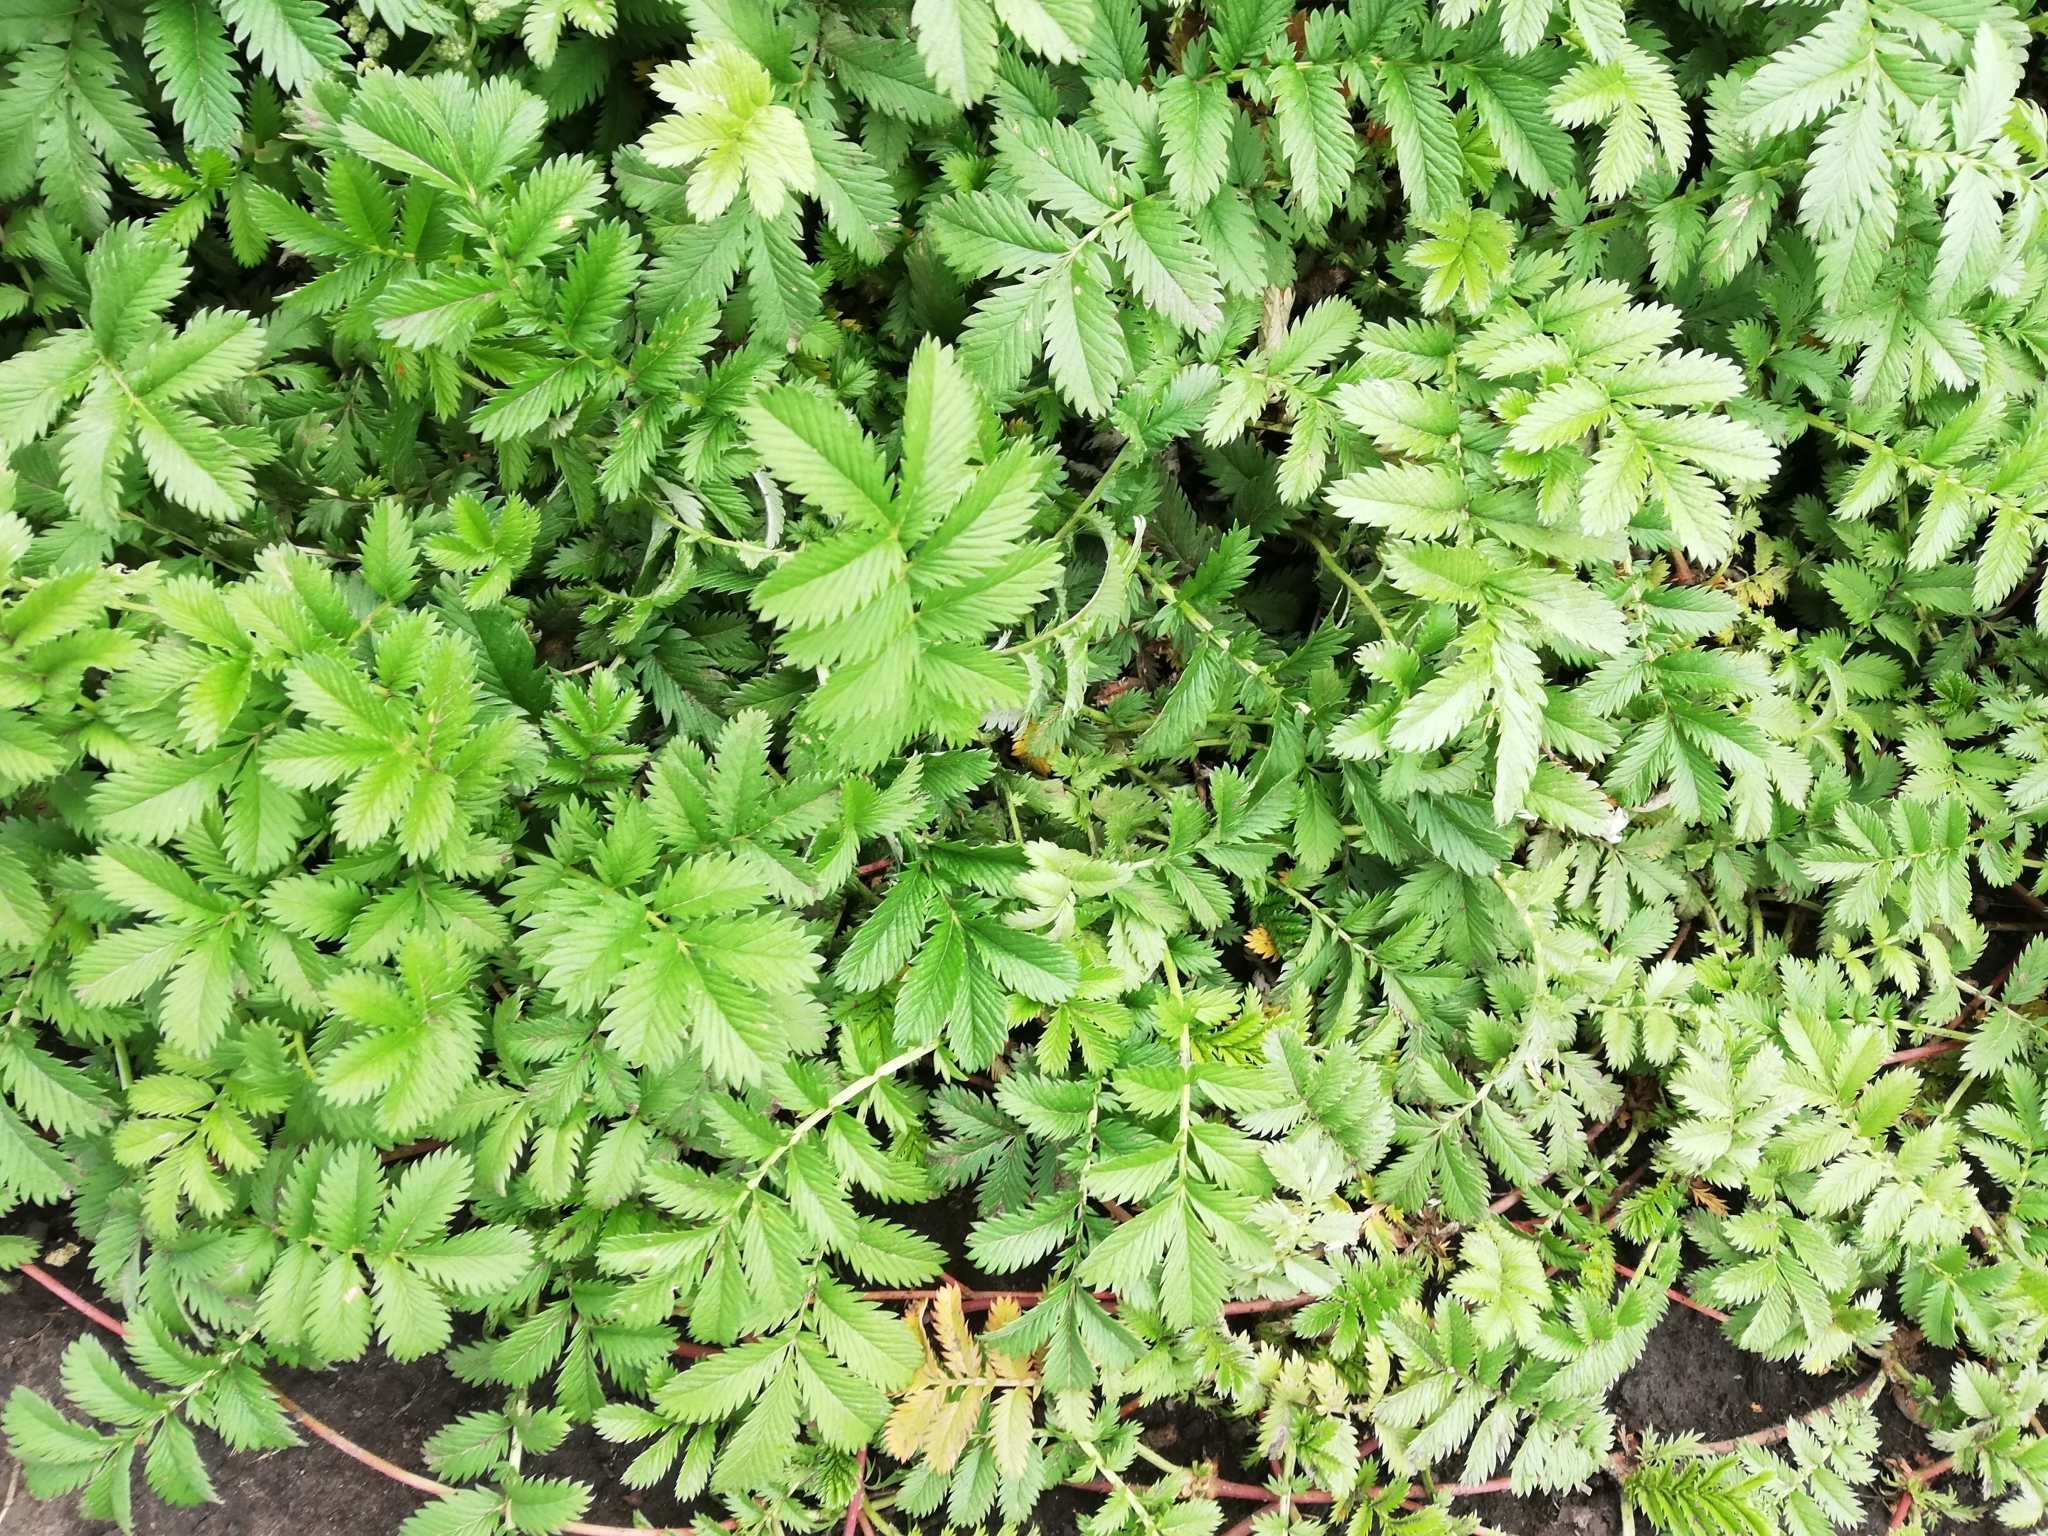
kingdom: Plantae
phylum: Tracheophyta
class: Magnoliopsida
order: Rosales
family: Rosaceae
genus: Argentina
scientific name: Argentina anserina
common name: Common silverweed
